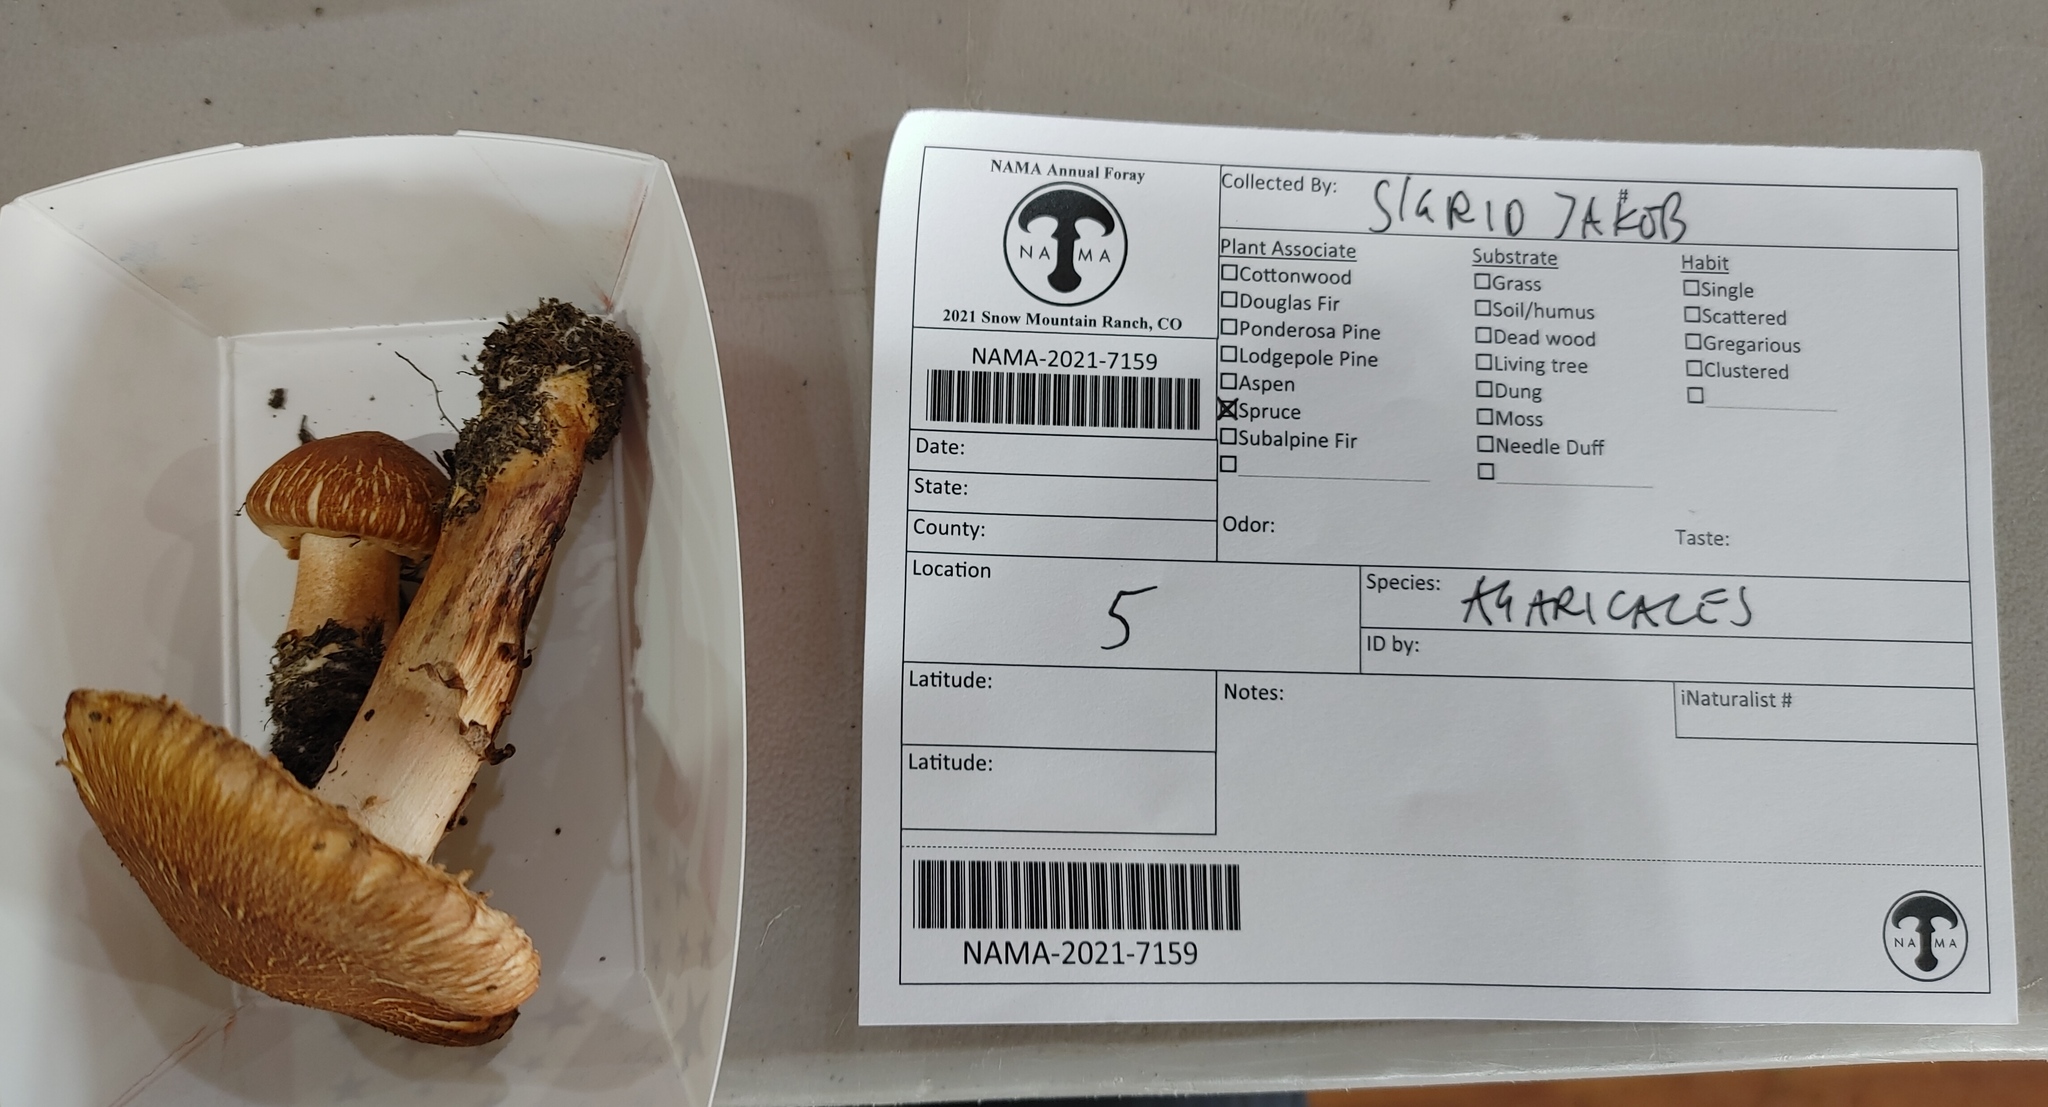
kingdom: Fungi
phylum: Basidiomycota
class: Agaricomycetes
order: Agaricales
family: Tricholomataceae
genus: Tricholoma
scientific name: Tricholoma vaccinum
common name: Scaly knight
